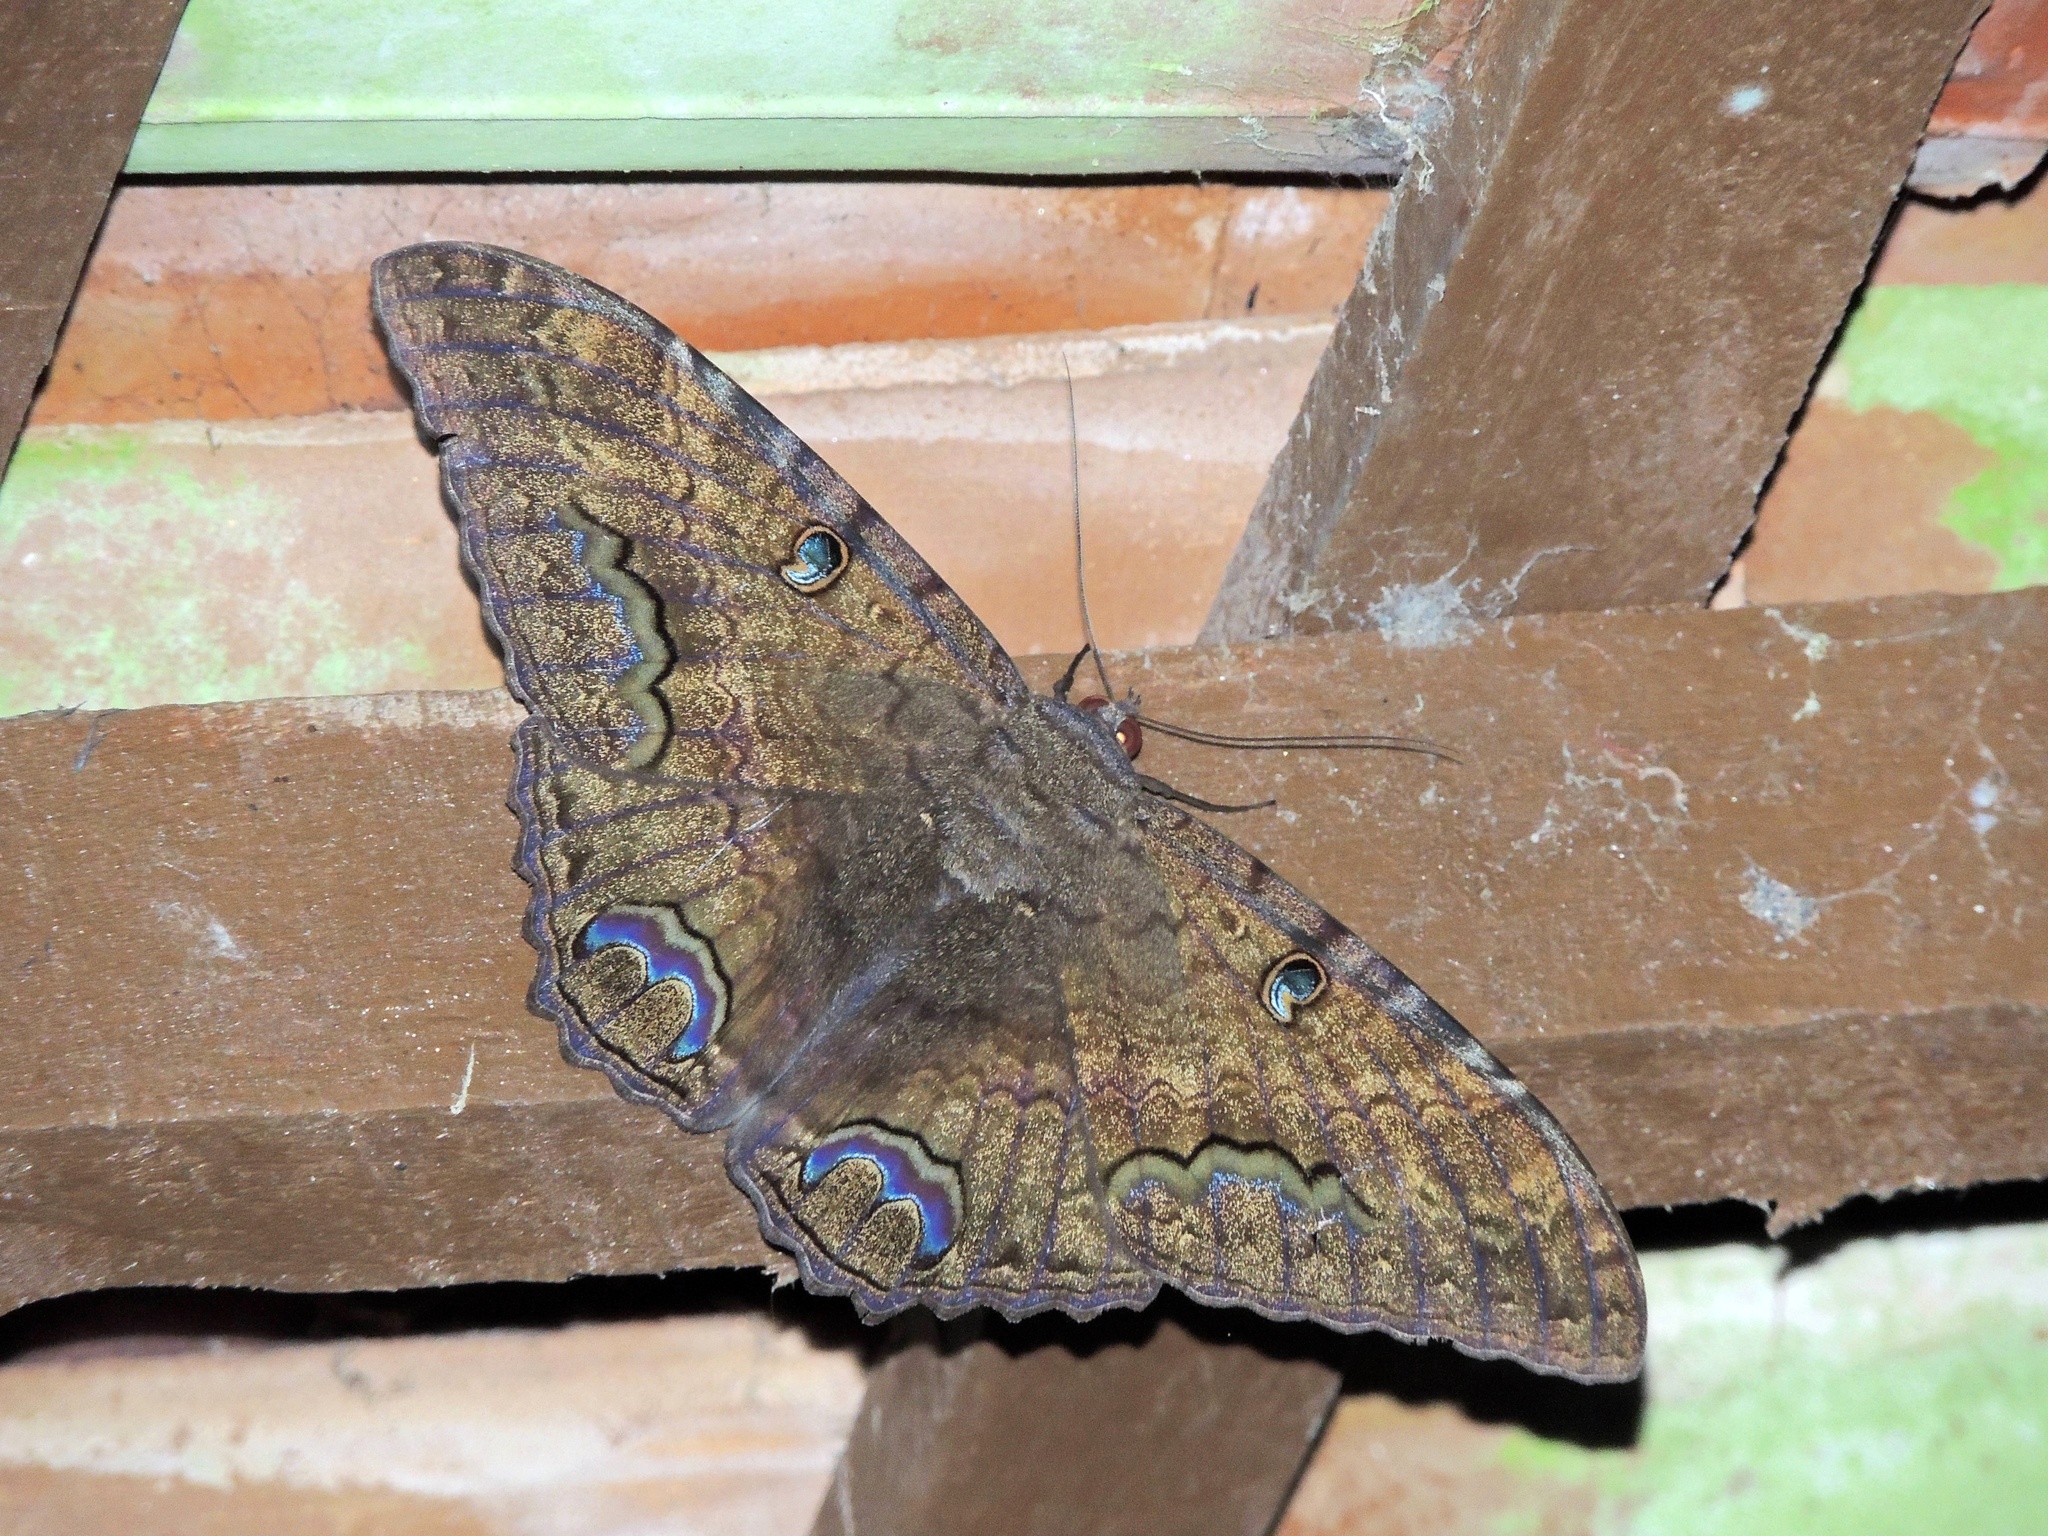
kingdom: Animalia
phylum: Arthropoda
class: Insecta
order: Lepidoptera
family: Erebidae
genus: Ascalapha
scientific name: Ascalapha odorata
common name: Black witch
